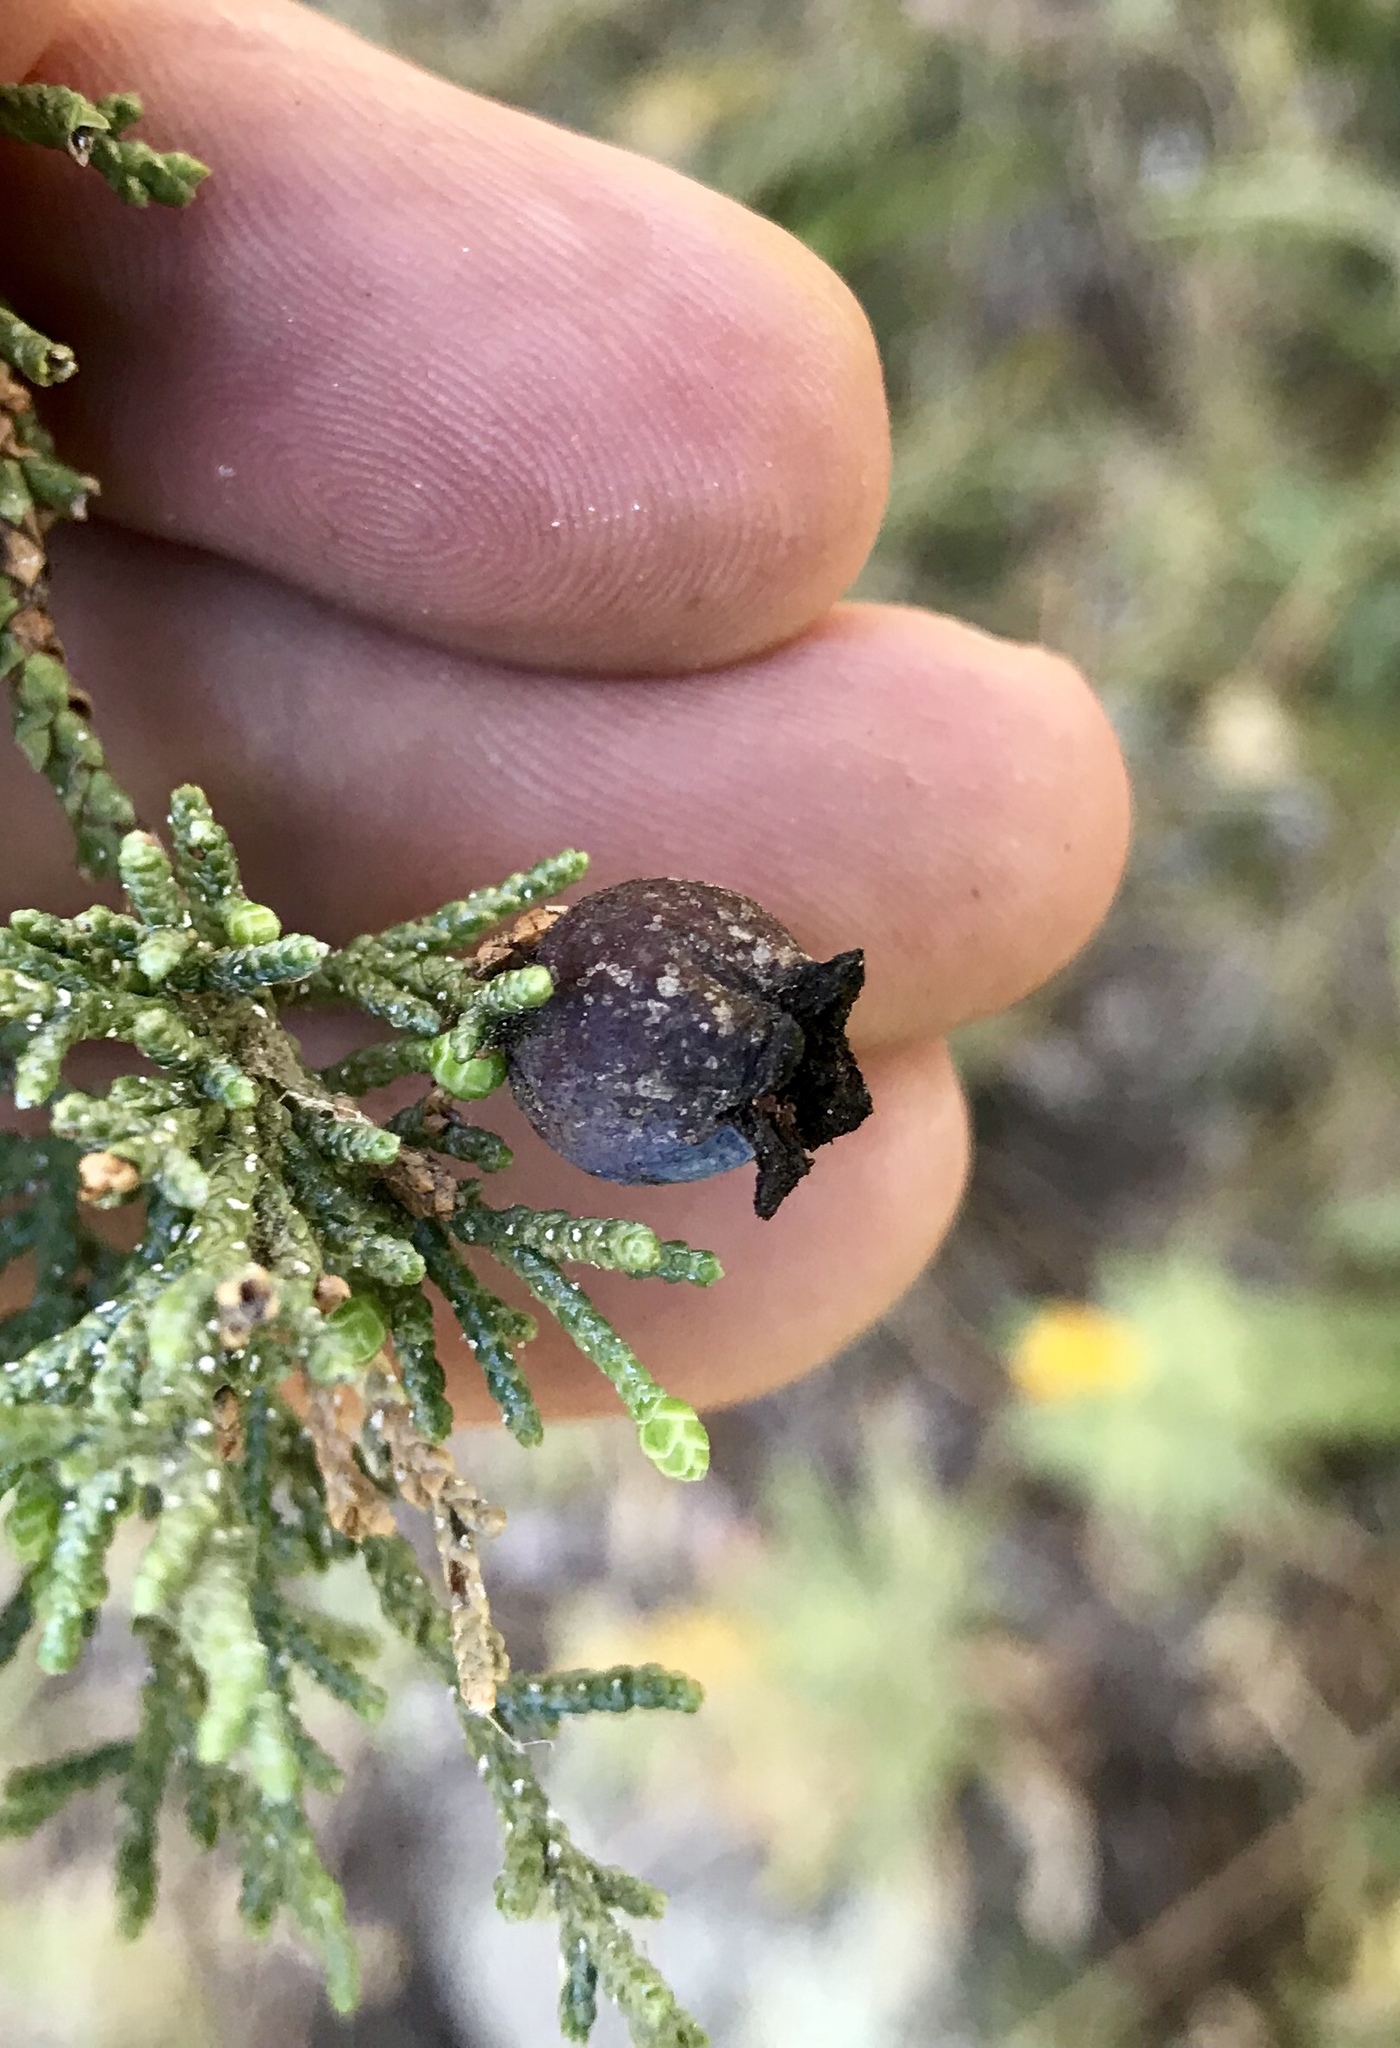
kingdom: Animalia
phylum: Arthropoda
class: Insecta
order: Diptera
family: Cecidomyiidae
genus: Walshomyia
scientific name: Walshomyia juniperina
